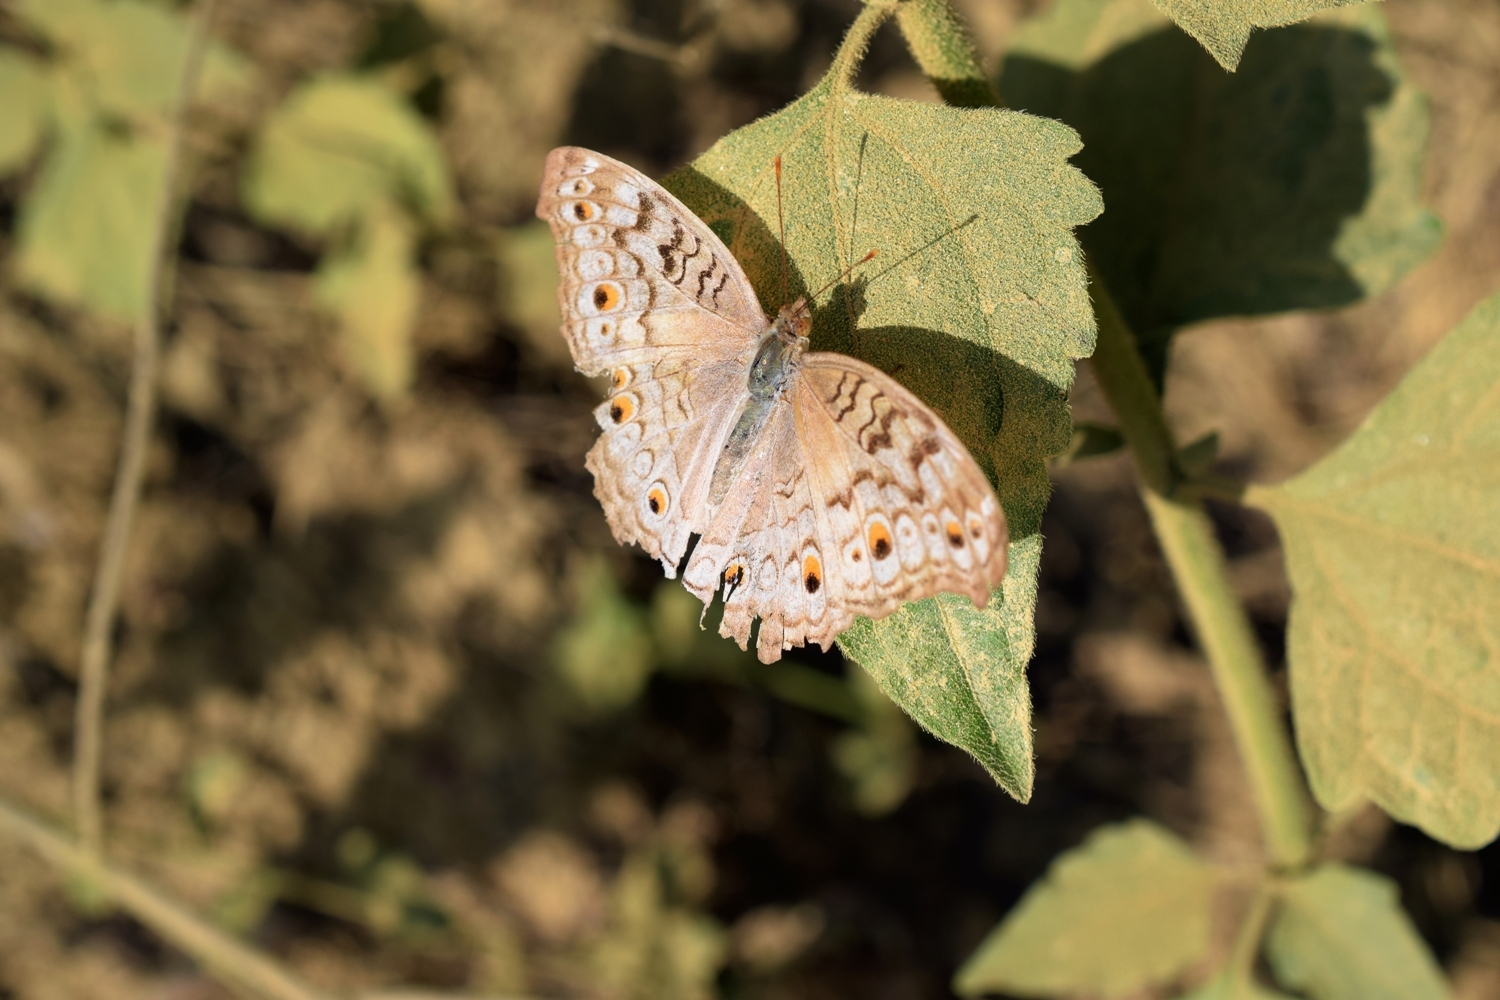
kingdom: Animalia
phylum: Arthropoda
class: Insecta
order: Lepidoptera
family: Nymphalidae
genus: Junonia
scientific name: Junonia atlites
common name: Grey pansy
